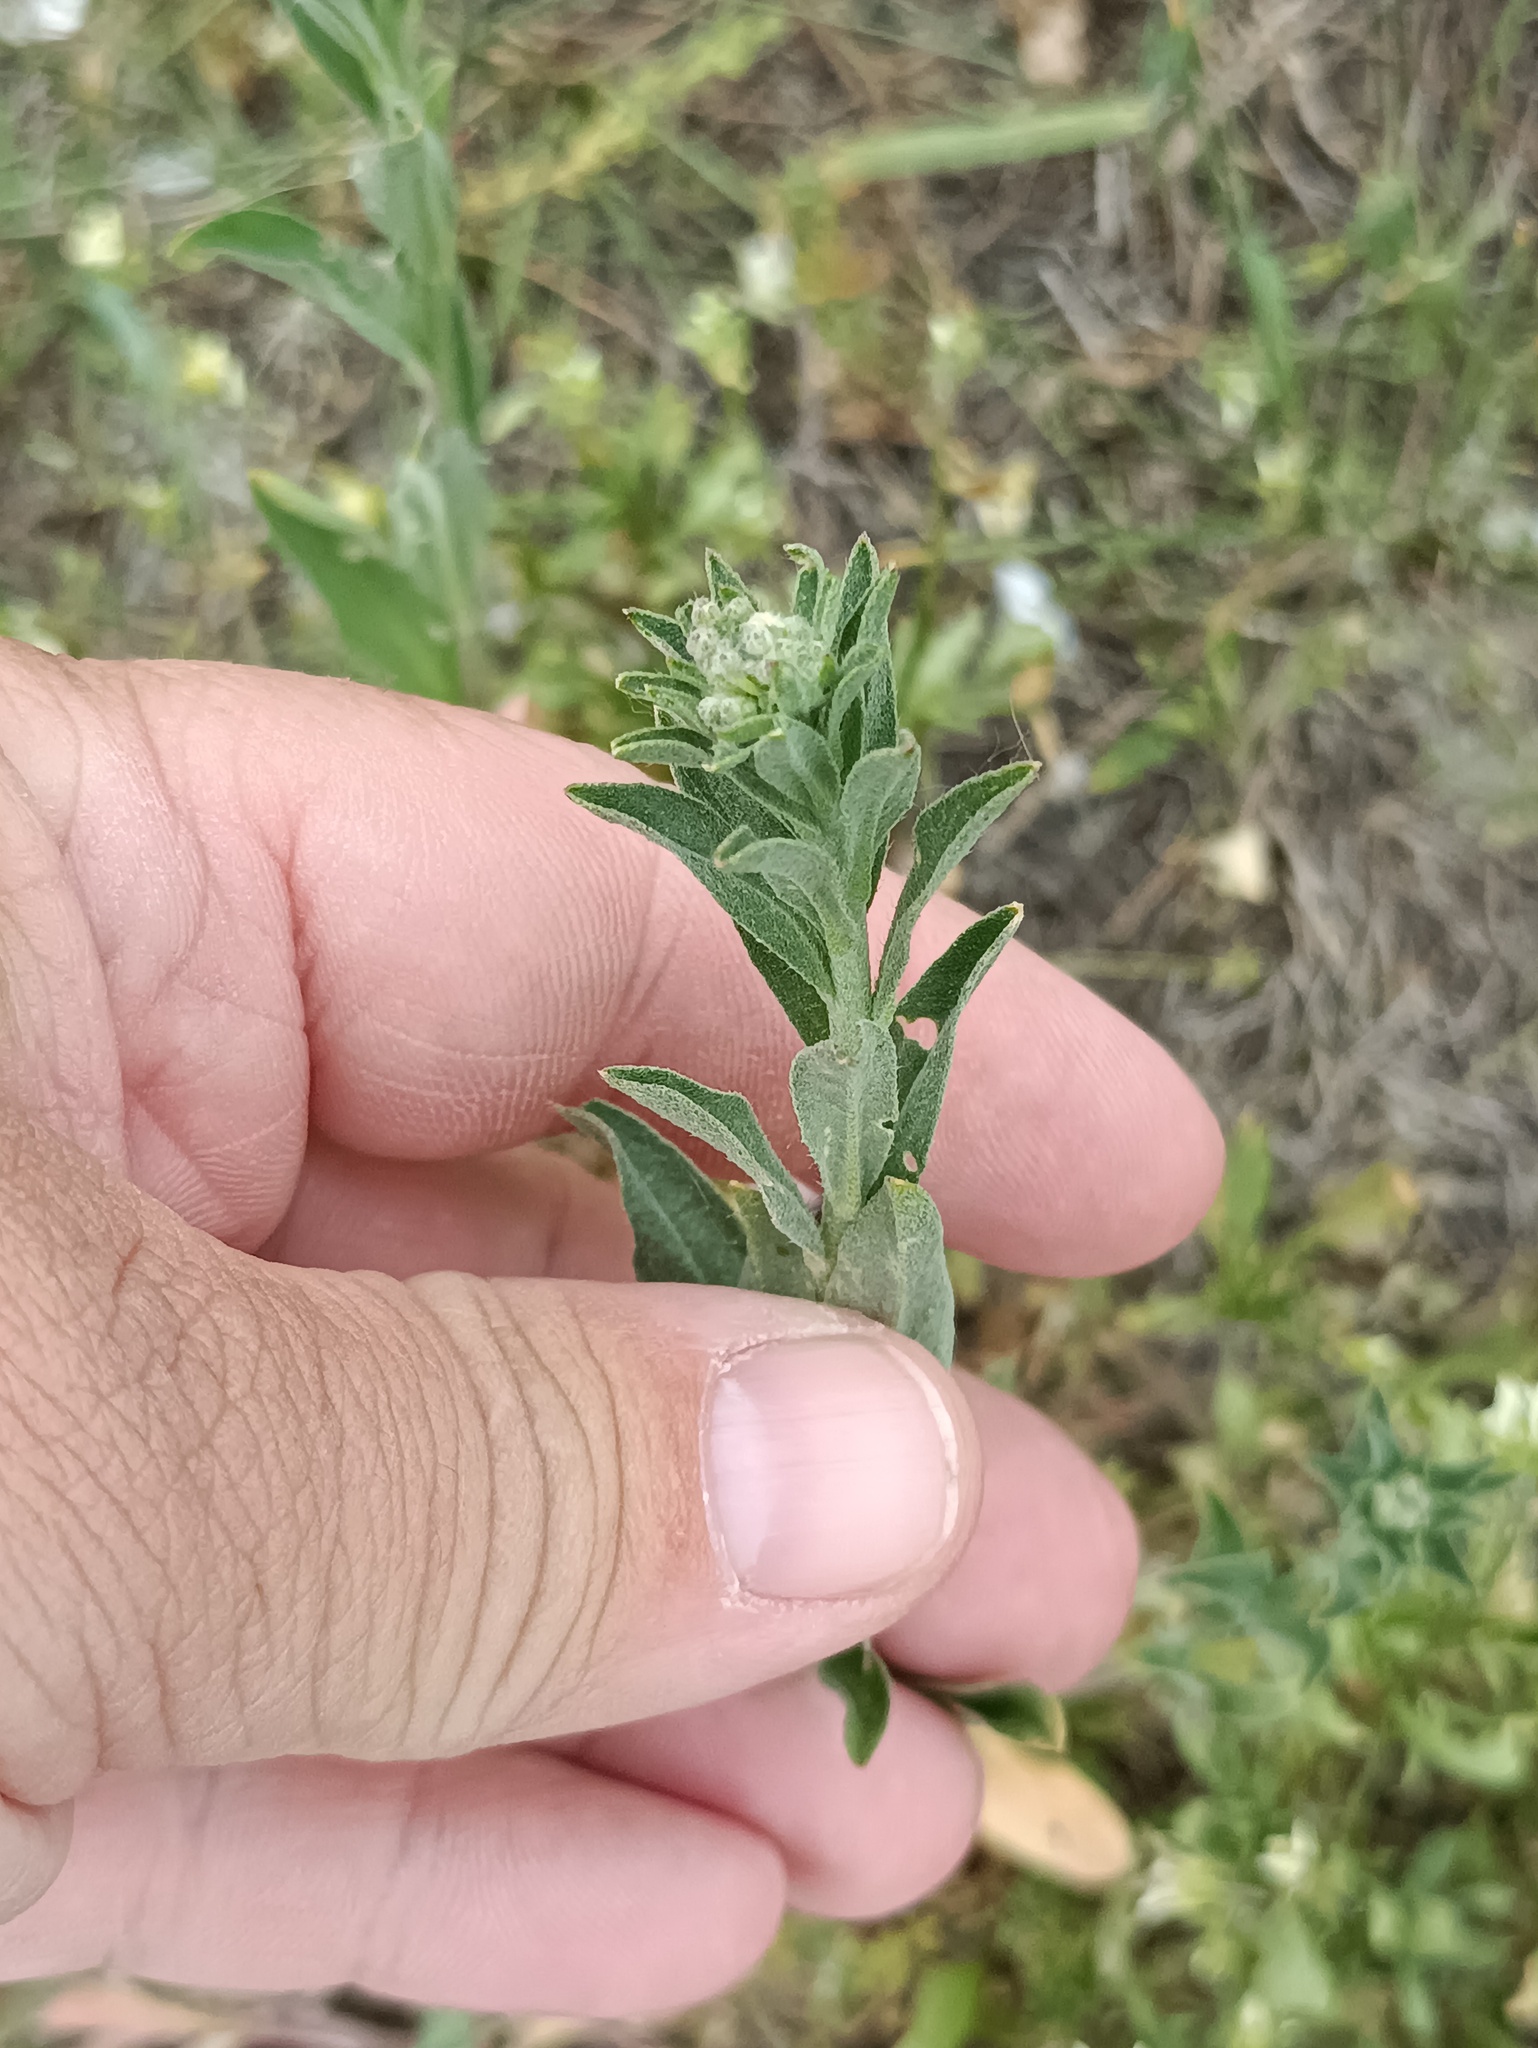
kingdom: Plantae
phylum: Tracheophyta
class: Magnoliopsida
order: Brassicales
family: Brassicaceae
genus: Berteroa
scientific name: Berteroa incana
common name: Hoary alison
